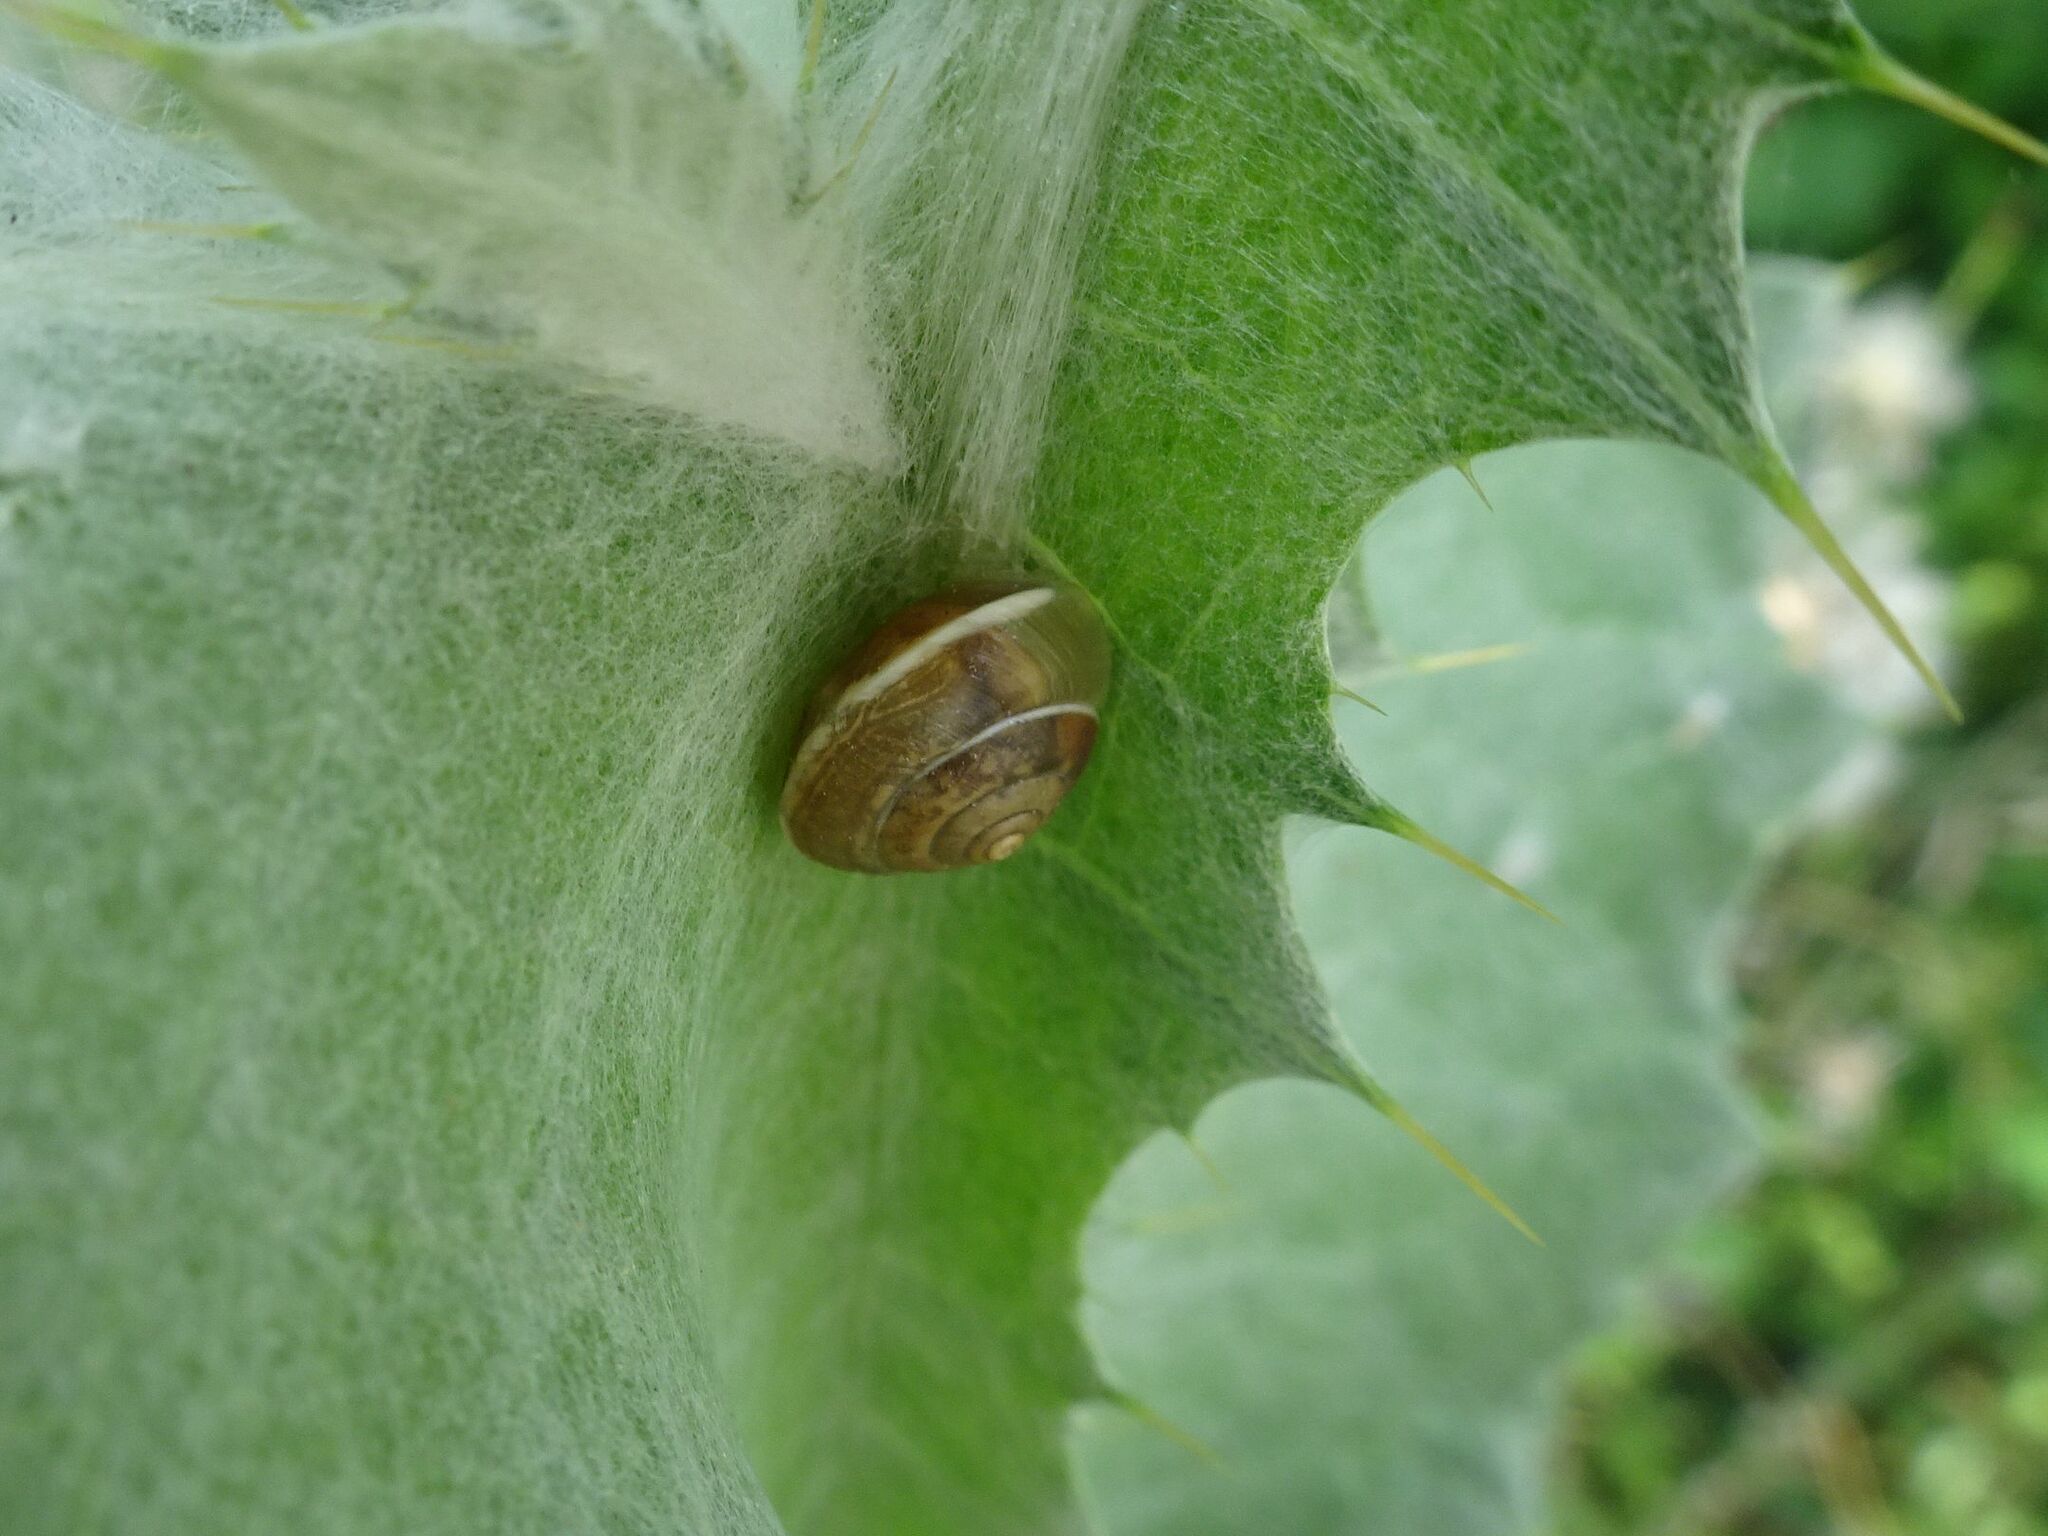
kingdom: Animalia
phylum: Mollusca
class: Gastropoda
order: Stylommatophora
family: Hygromiidae
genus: Hygromia
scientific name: Hygromia cinctella
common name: Girdled snail
